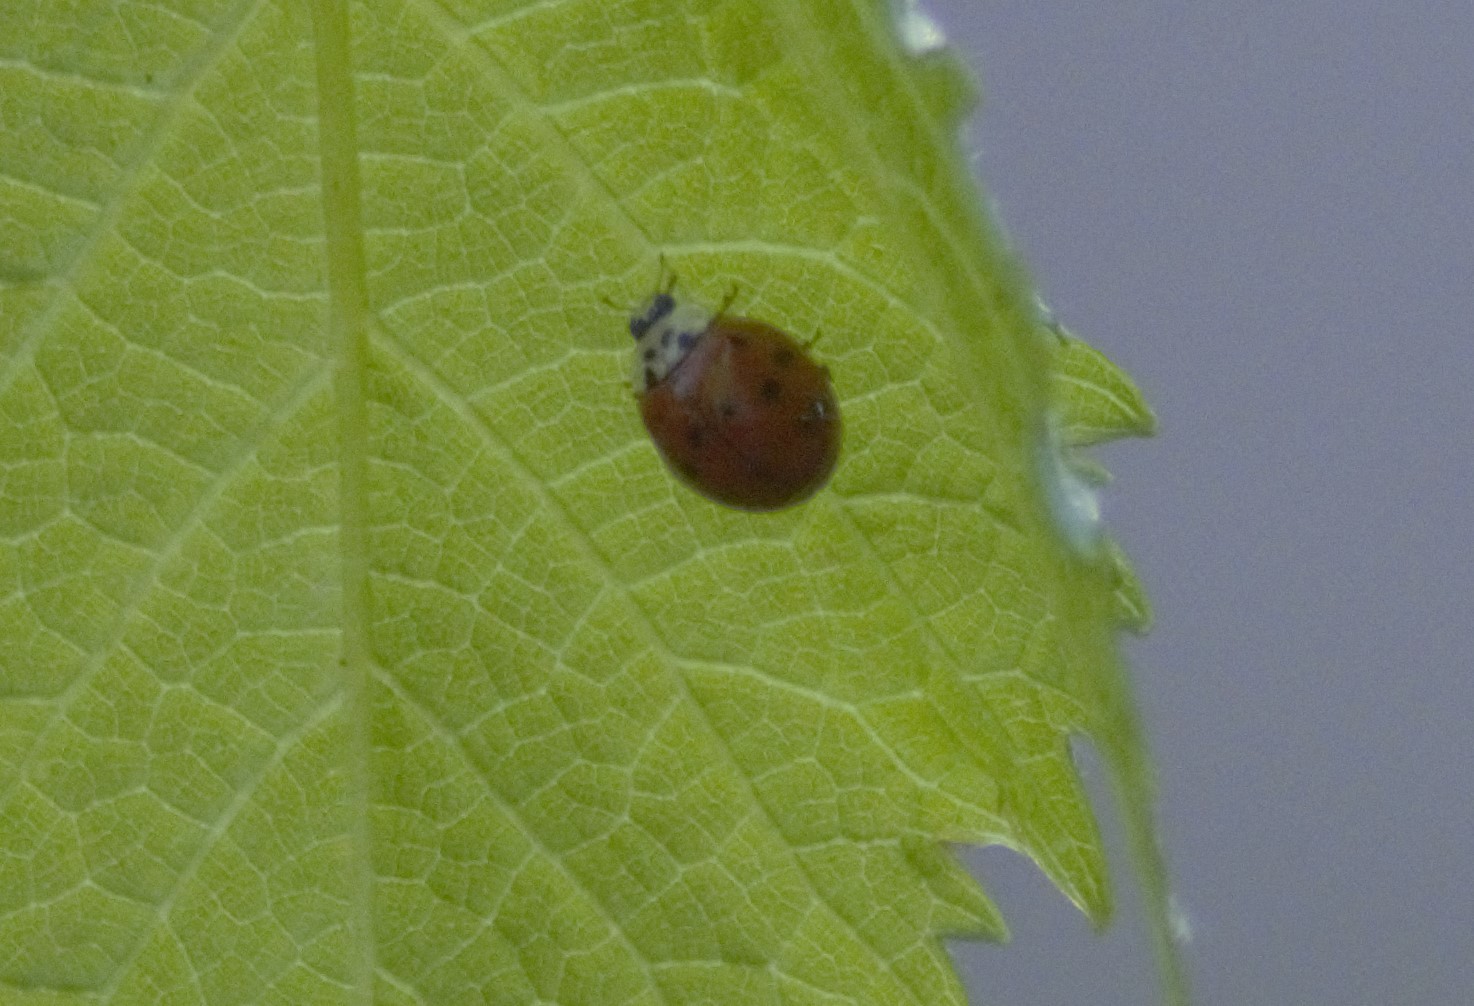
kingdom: Animalia
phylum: Arthropoda
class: Insecta
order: Coleoptera
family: Coccinellidae
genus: Harmonia
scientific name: Harmonia axyridis
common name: Harlequin ladybird
